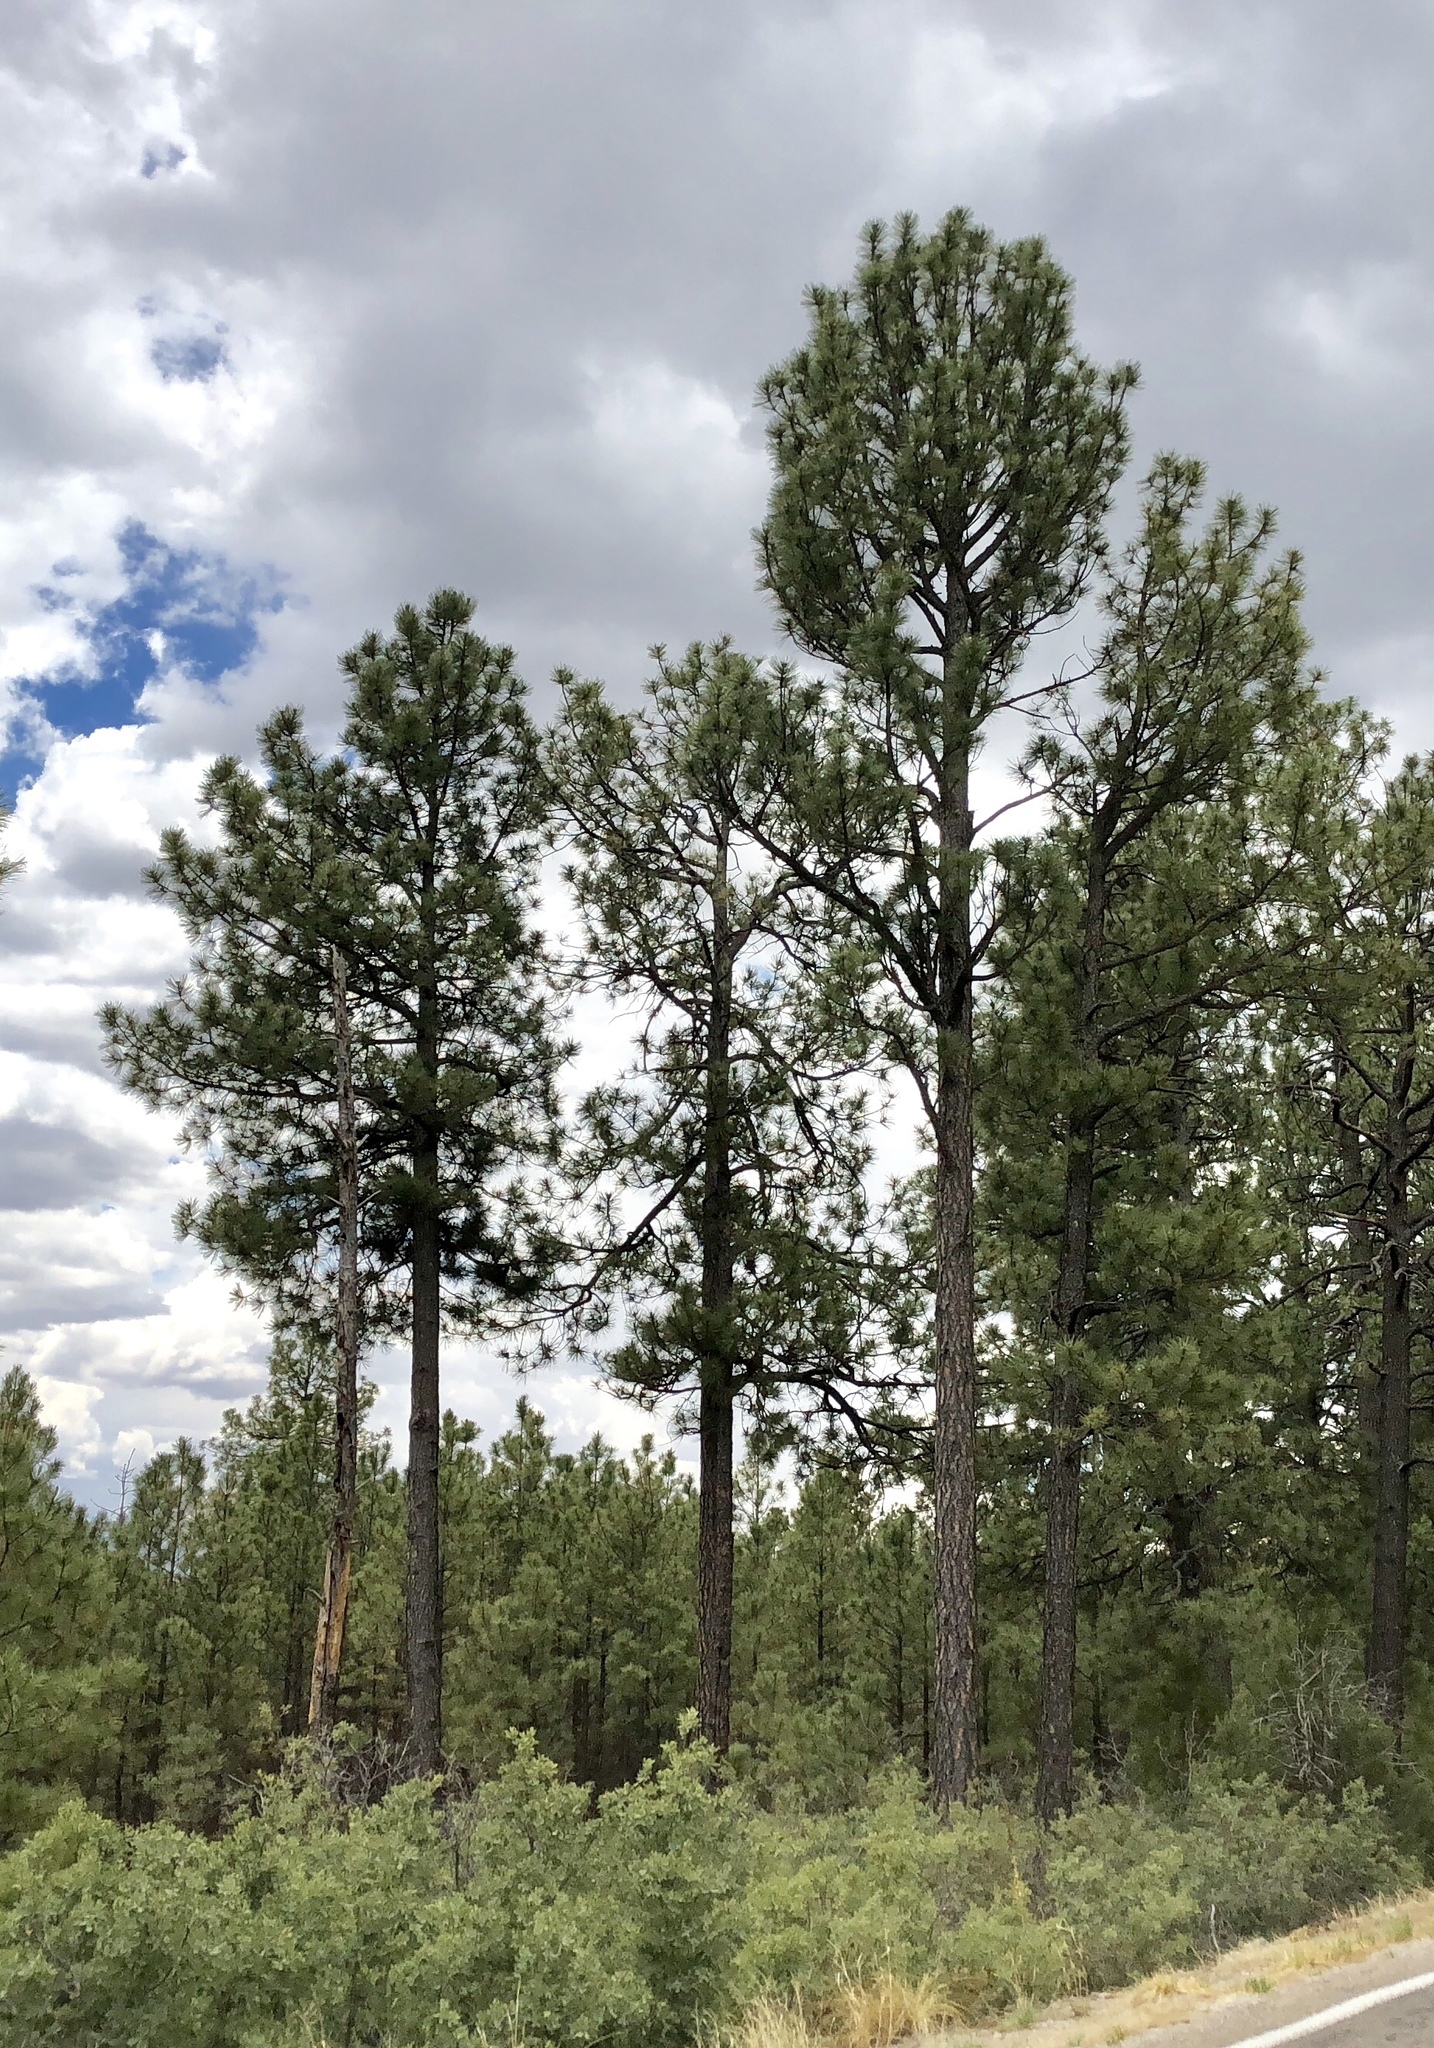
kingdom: Plantae
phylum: Tracheophyta
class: Pinopsida
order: Pinales
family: Pinaceae
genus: Pinus
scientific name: Pinus ponderosa
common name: Western yellow-pine
